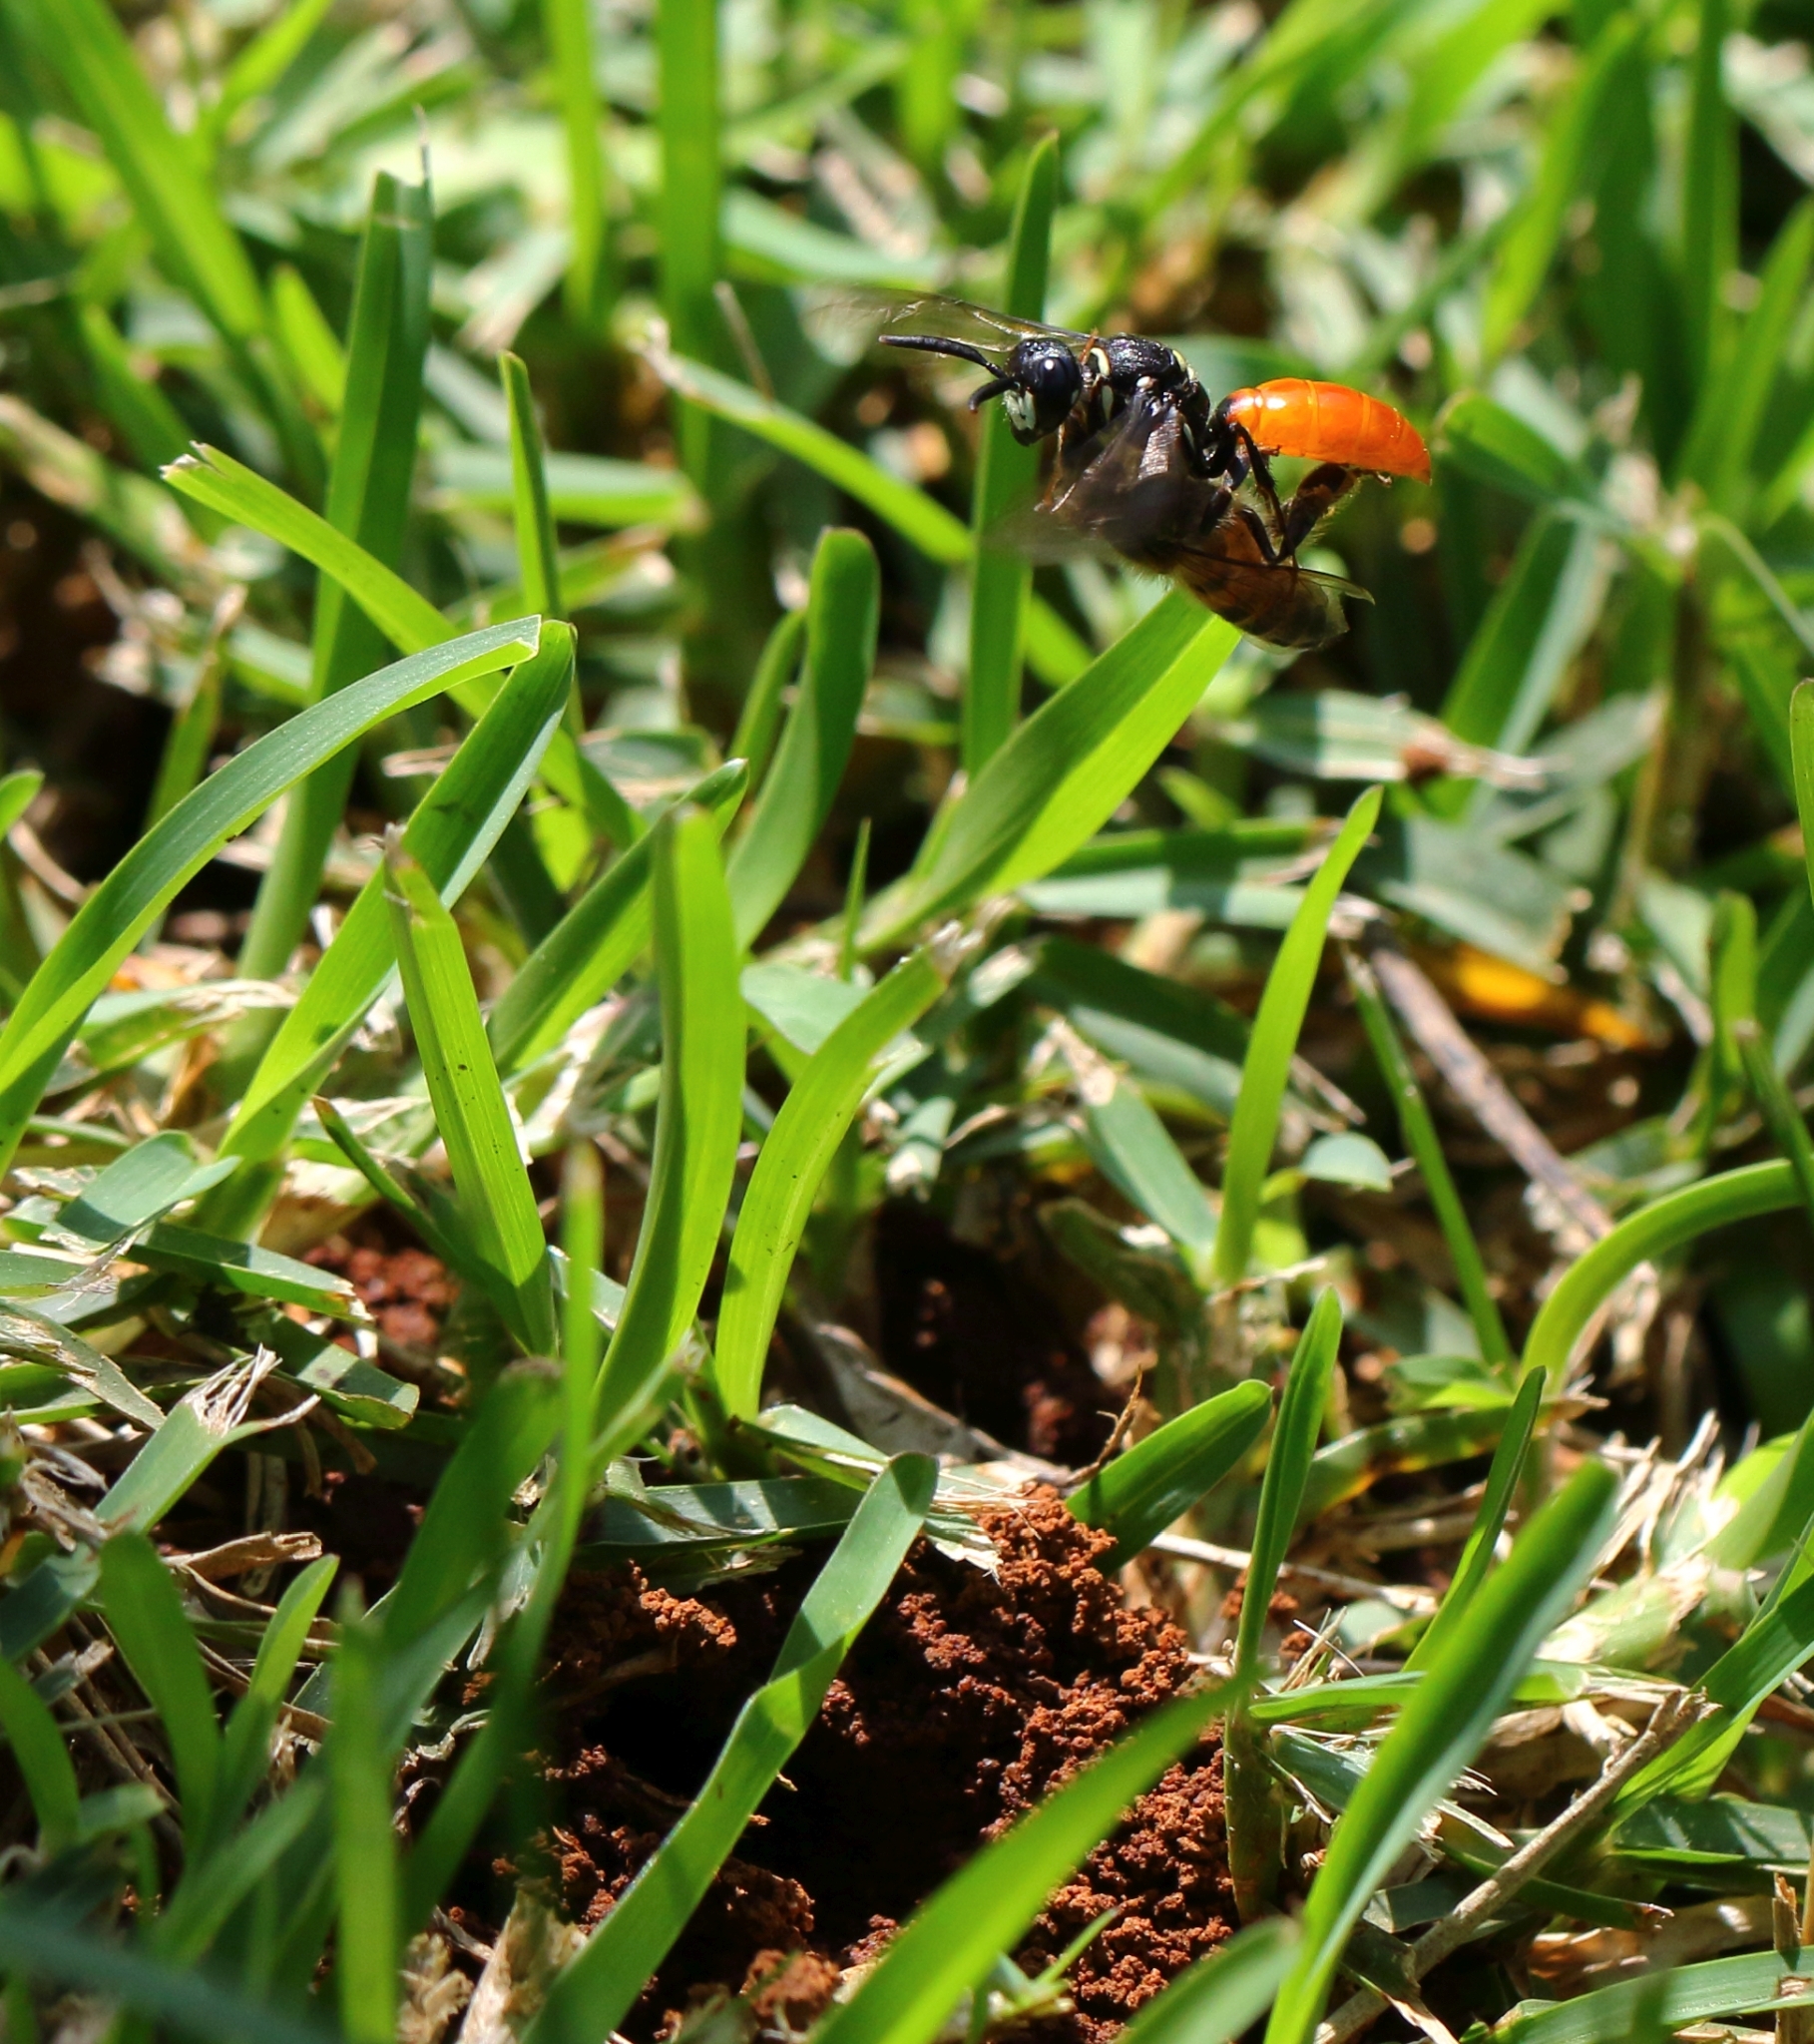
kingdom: Animalia
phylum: Arthropoda
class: Insecta
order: Hymenoptera
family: Apidae
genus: Apis
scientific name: Apis mellifera
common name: Honey bee
